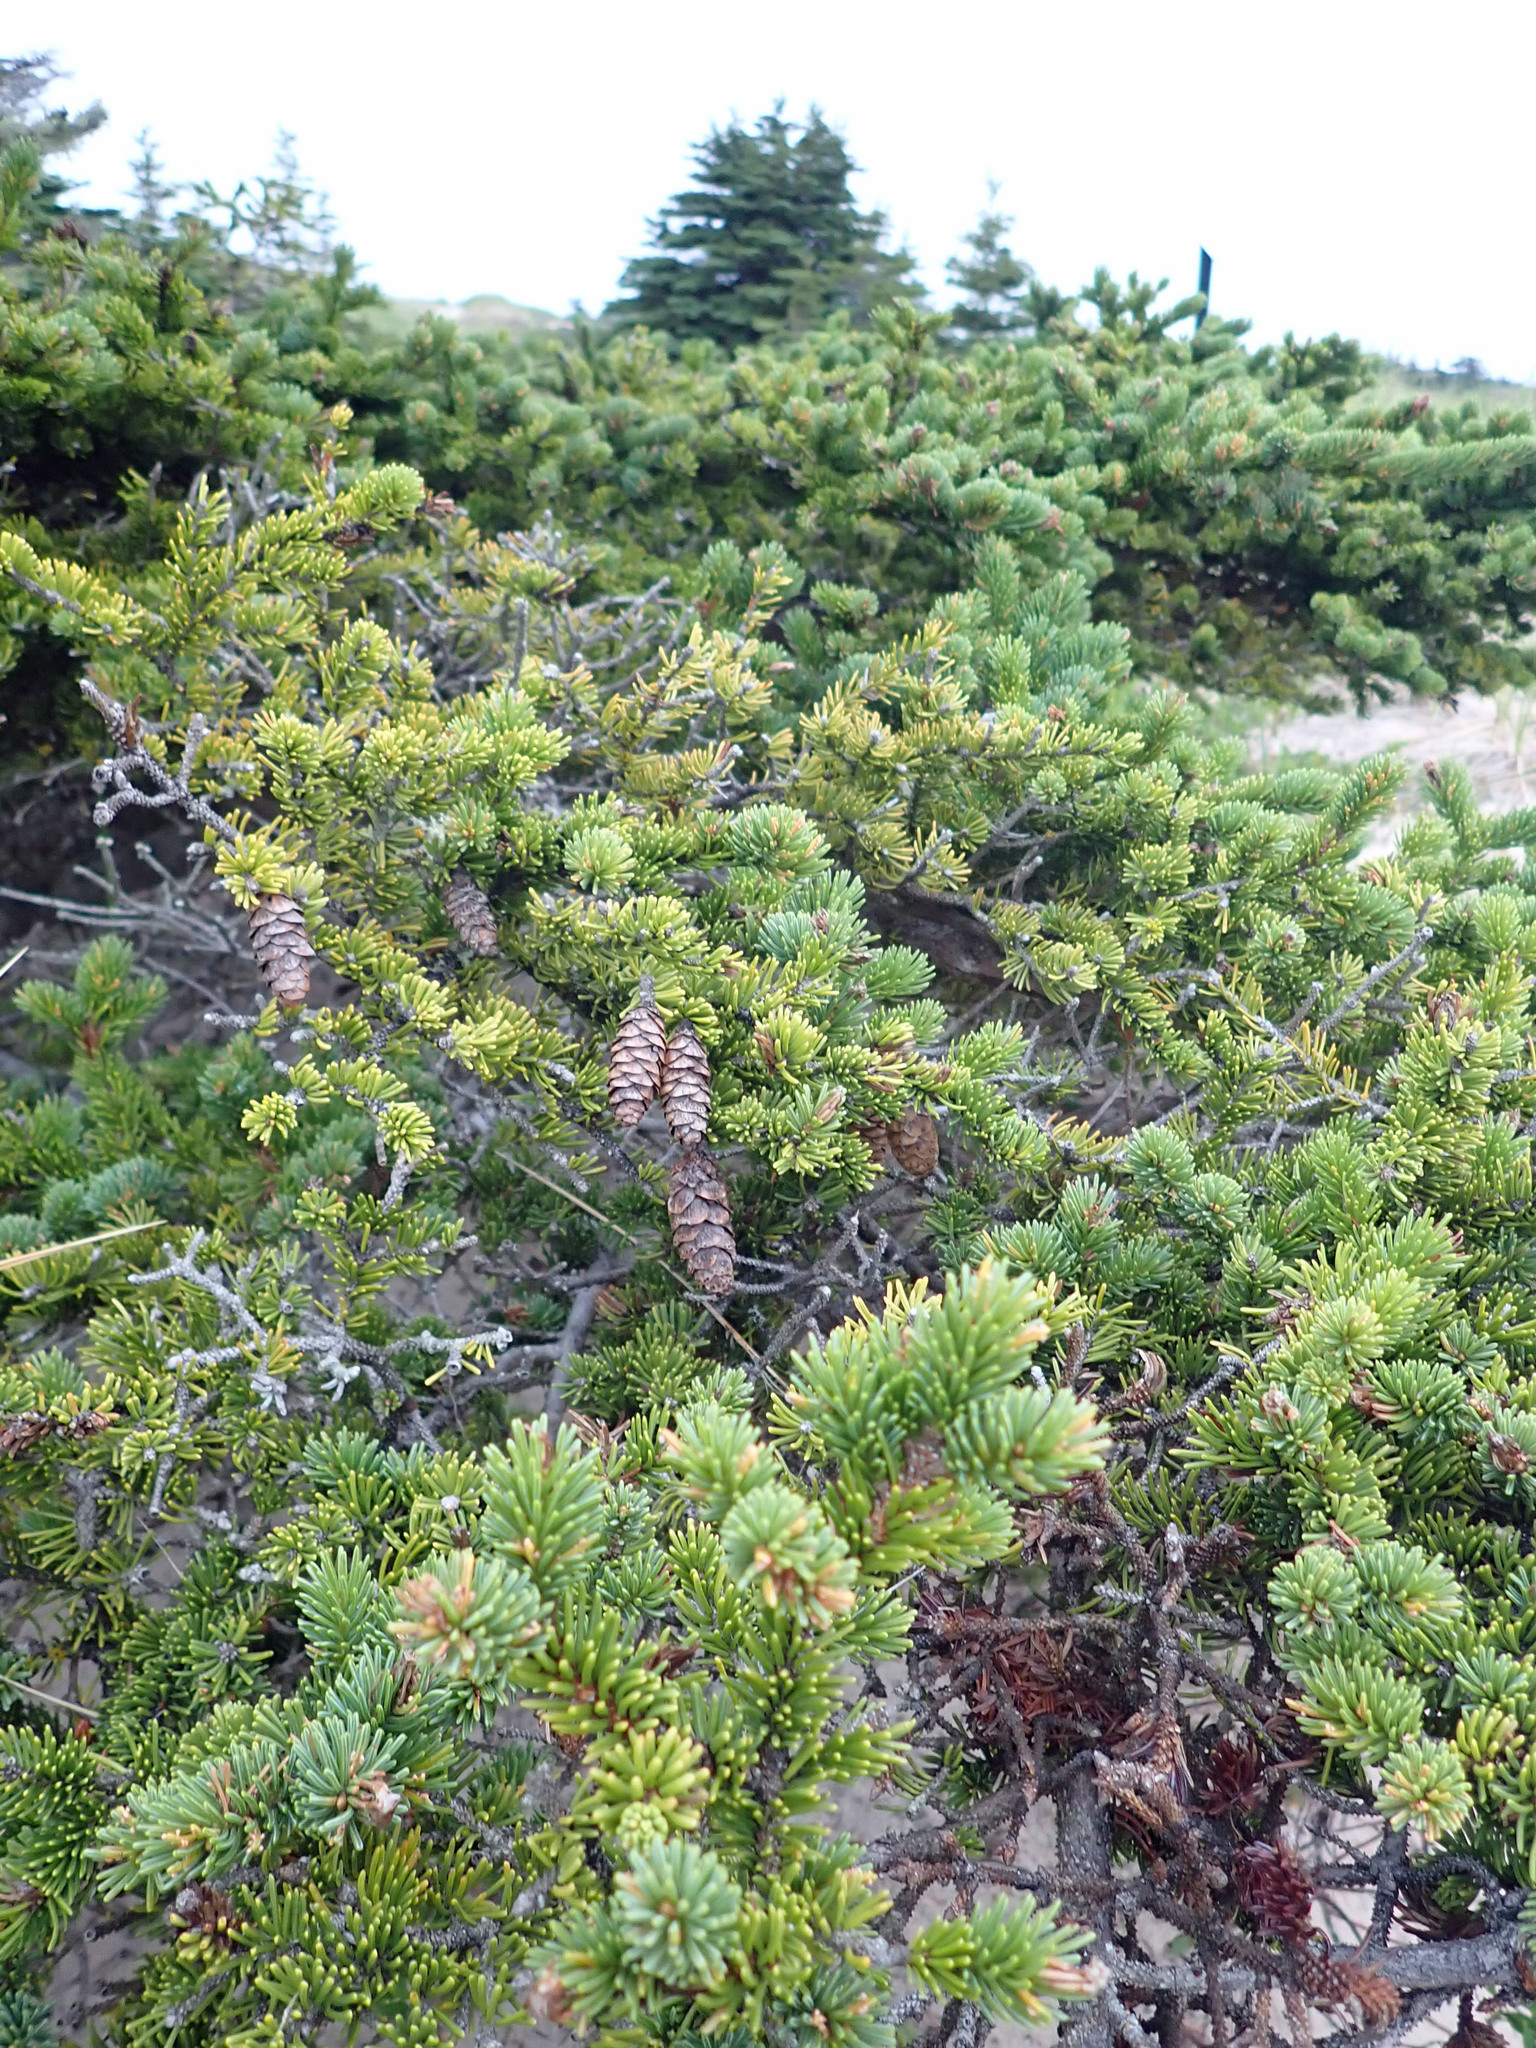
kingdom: Plantae
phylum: Tracheophyta
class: Pinopsida
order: Pinales
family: Pinaceae
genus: Picea
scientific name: Picea glauca
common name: White spruce
